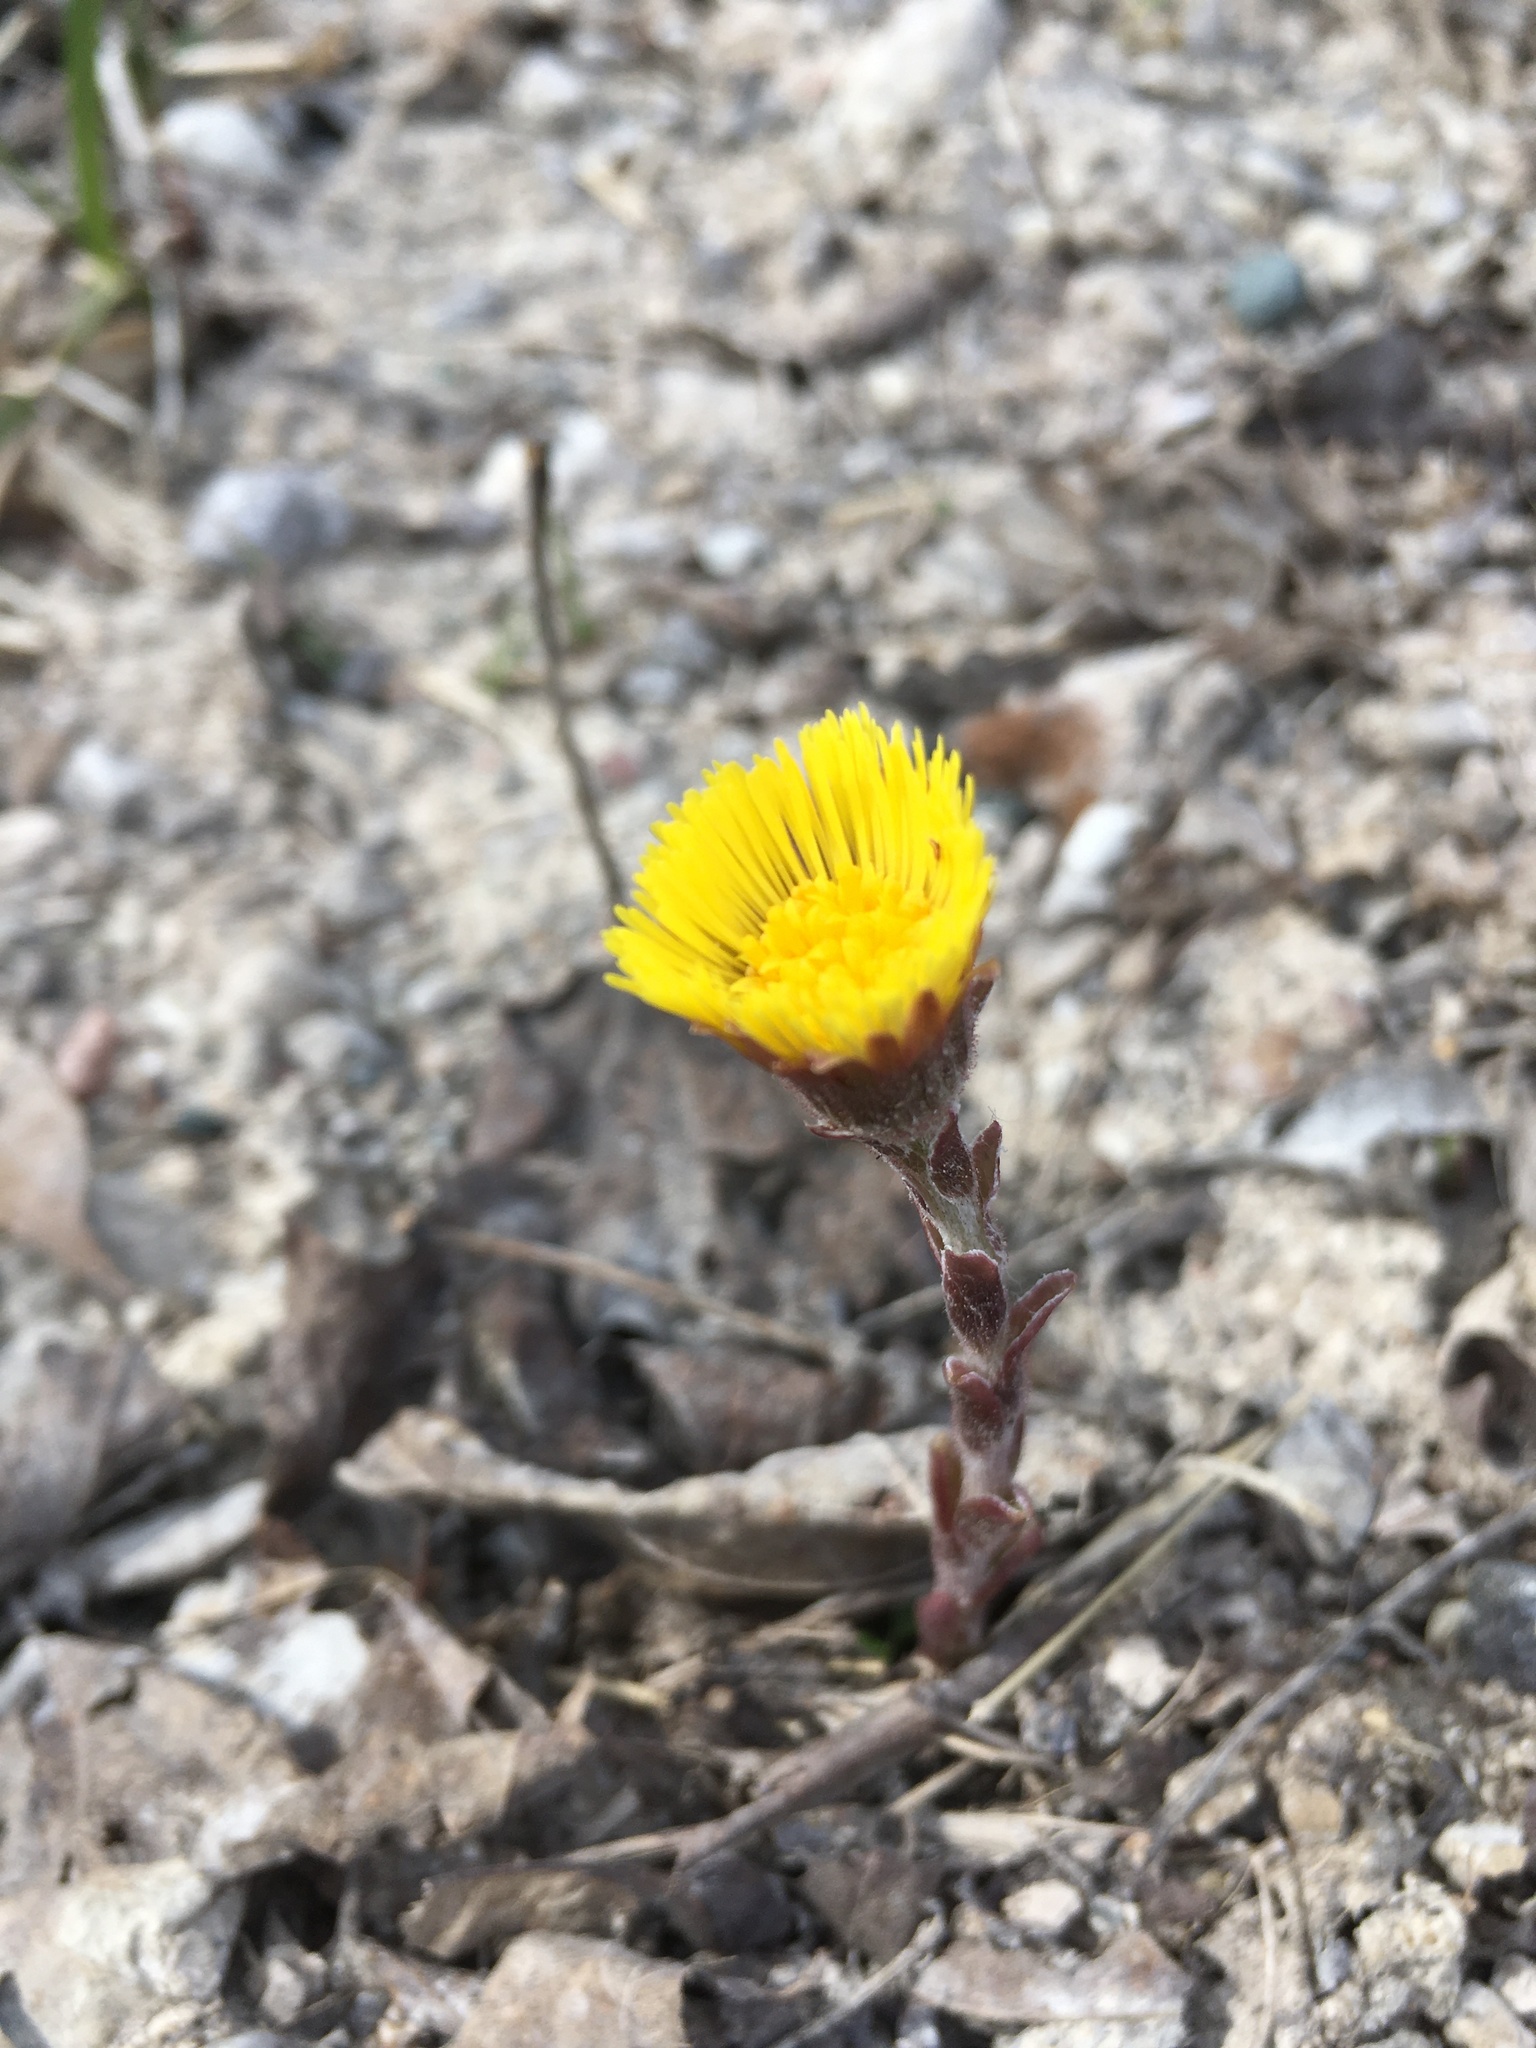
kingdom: Plantae
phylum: Tracheophyta
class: Magnoliopsida
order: Asterales
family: Asteraceae
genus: Tussilago
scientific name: Tussilago farfara
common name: Coltsfoot
